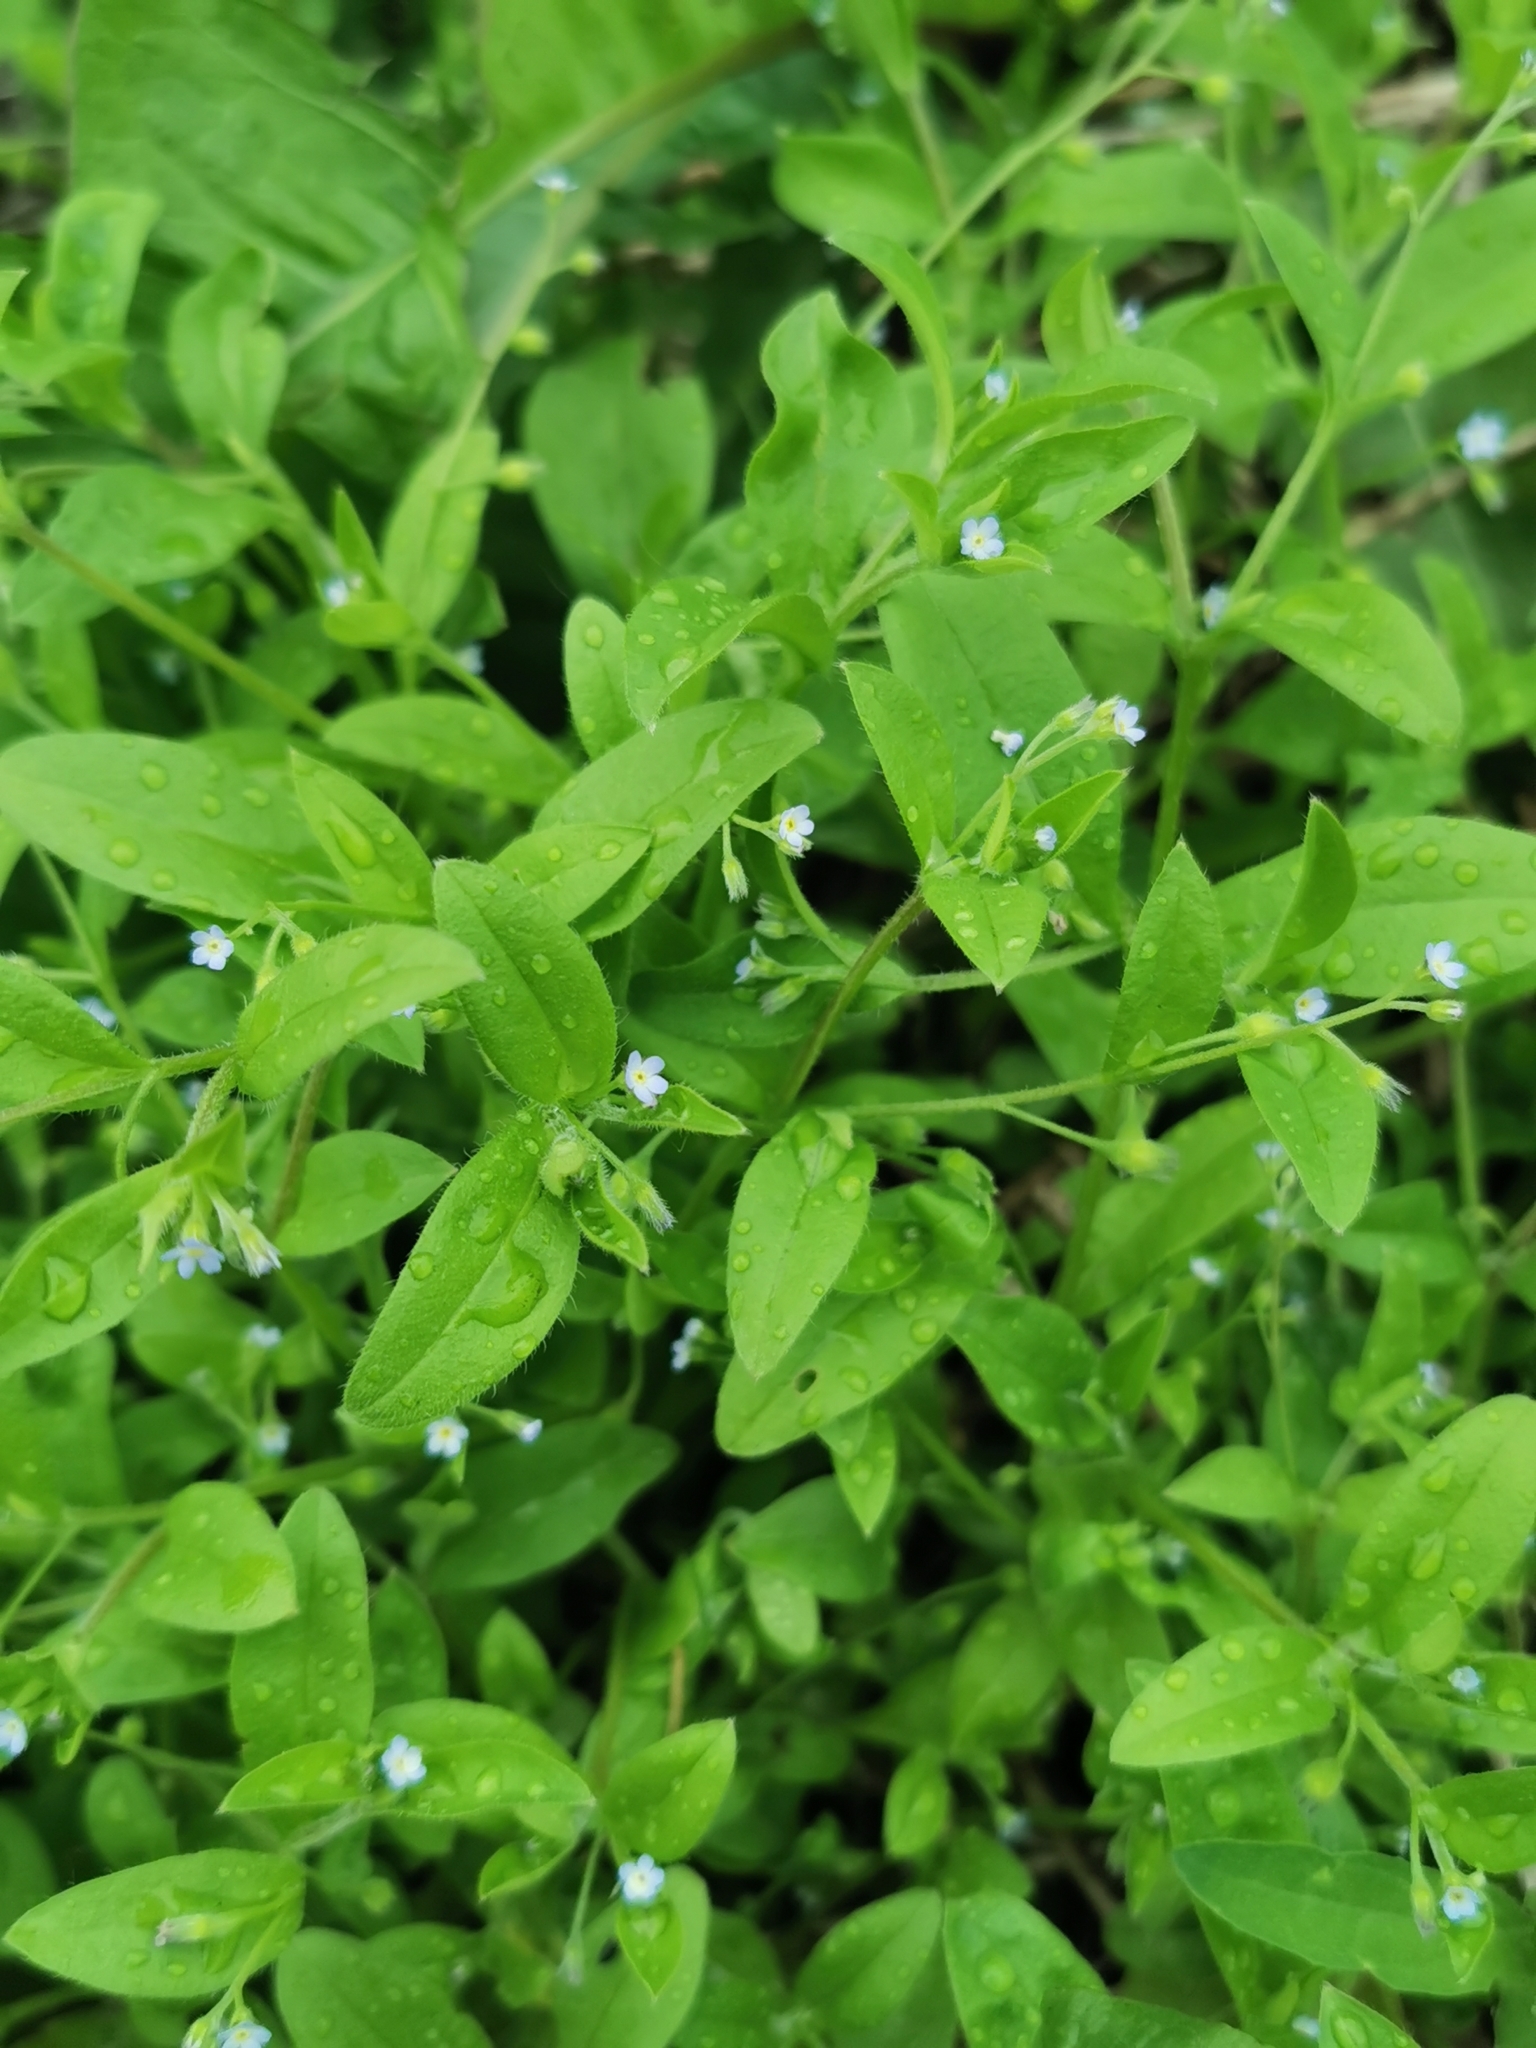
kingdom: Plantae
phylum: Tracheophyta
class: Magnoliopsida
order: Boraginales
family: Boraginaceae
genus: Myosotis
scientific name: Myosotis sparsiflora
